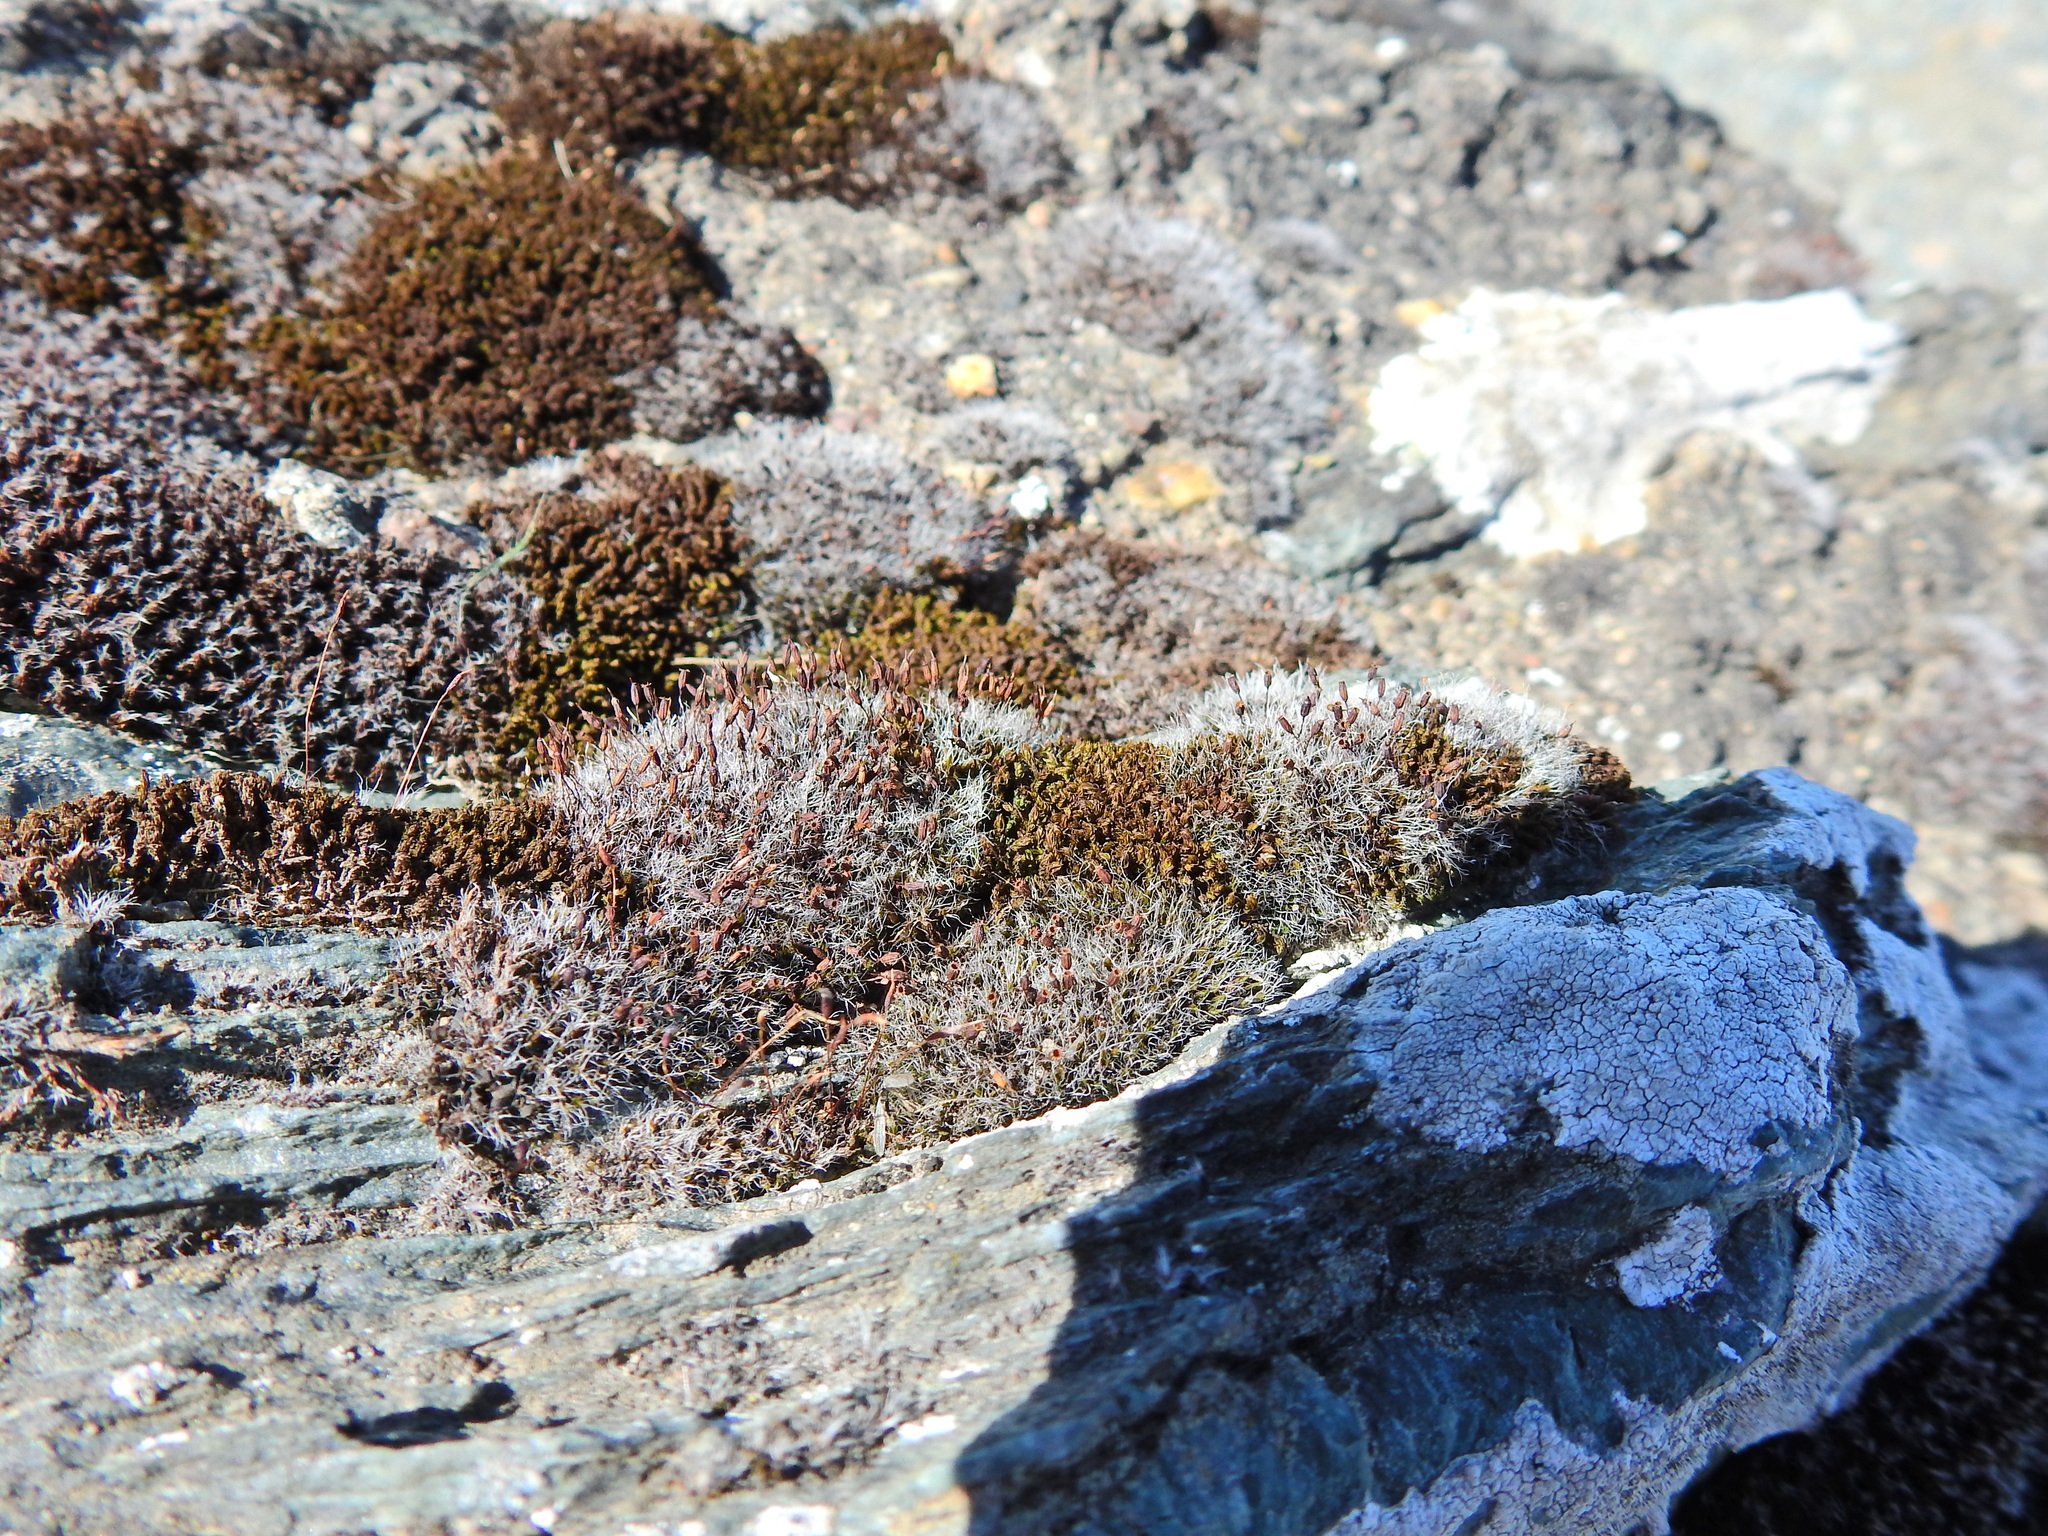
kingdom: Plantae
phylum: Bryophyta
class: Bryopsida
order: Grimmiales
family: Grimmiaceae
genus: Grimmia
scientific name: Grimmia pulvinata
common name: Grey-cushioned grimmia
